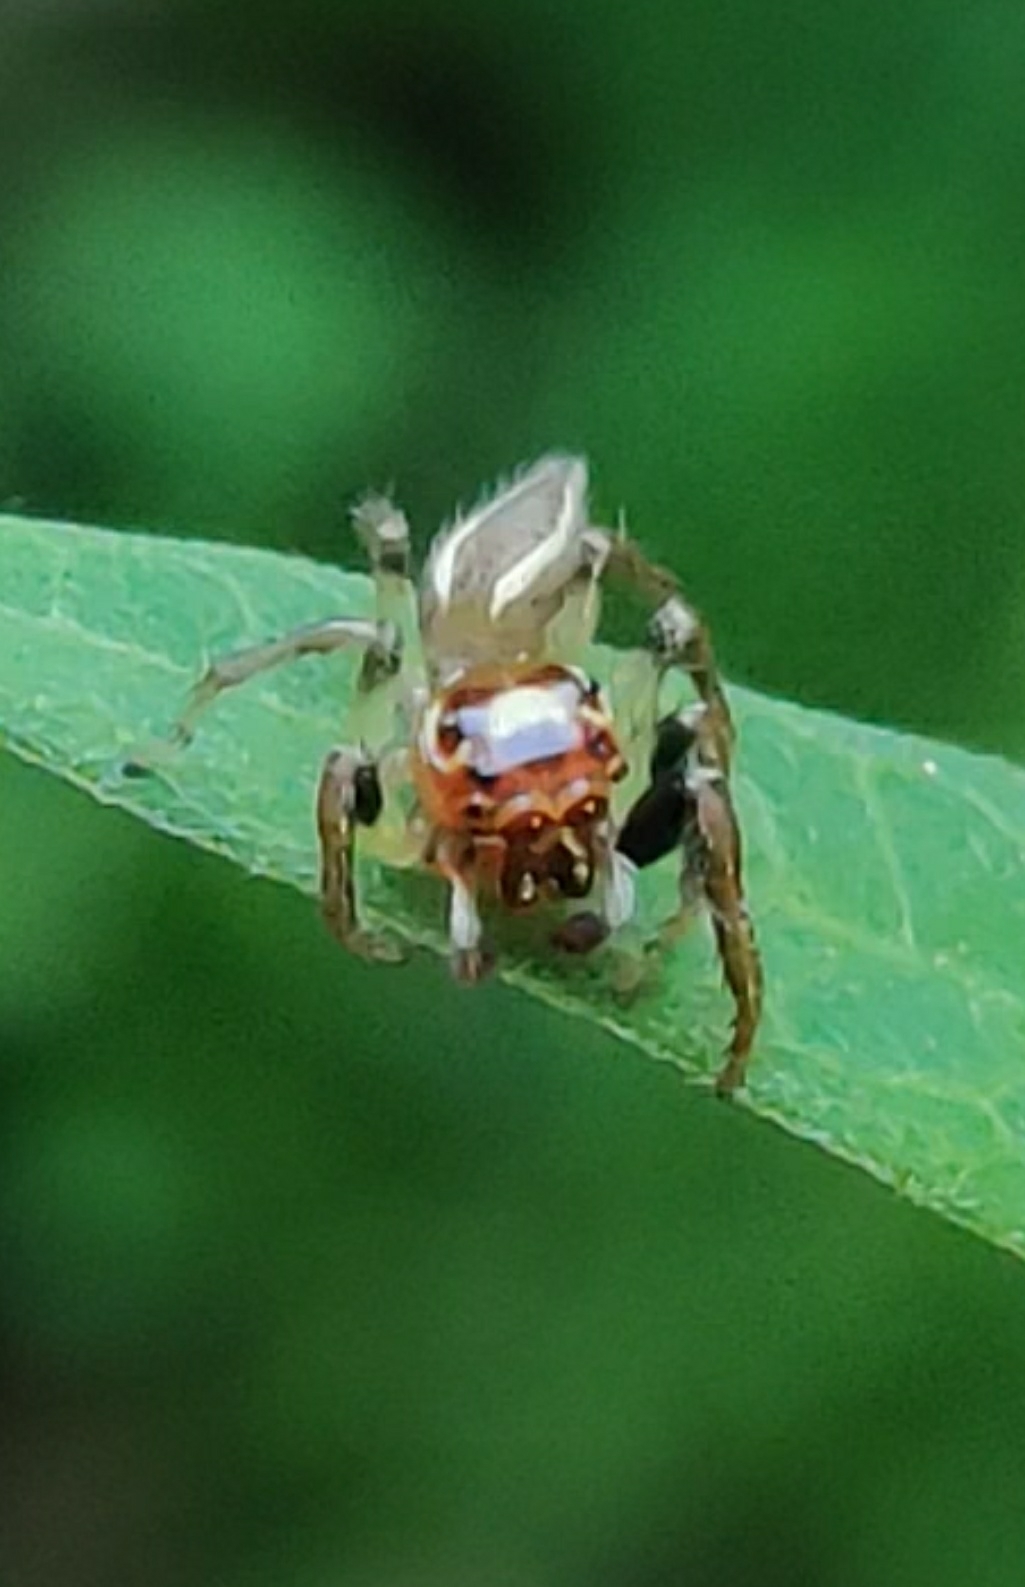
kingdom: Animalia
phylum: Arthropoda
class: Arachnida
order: Araneae
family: Salticidae
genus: Colonus
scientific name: Colonus sylvanus
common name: Jumping spiders
